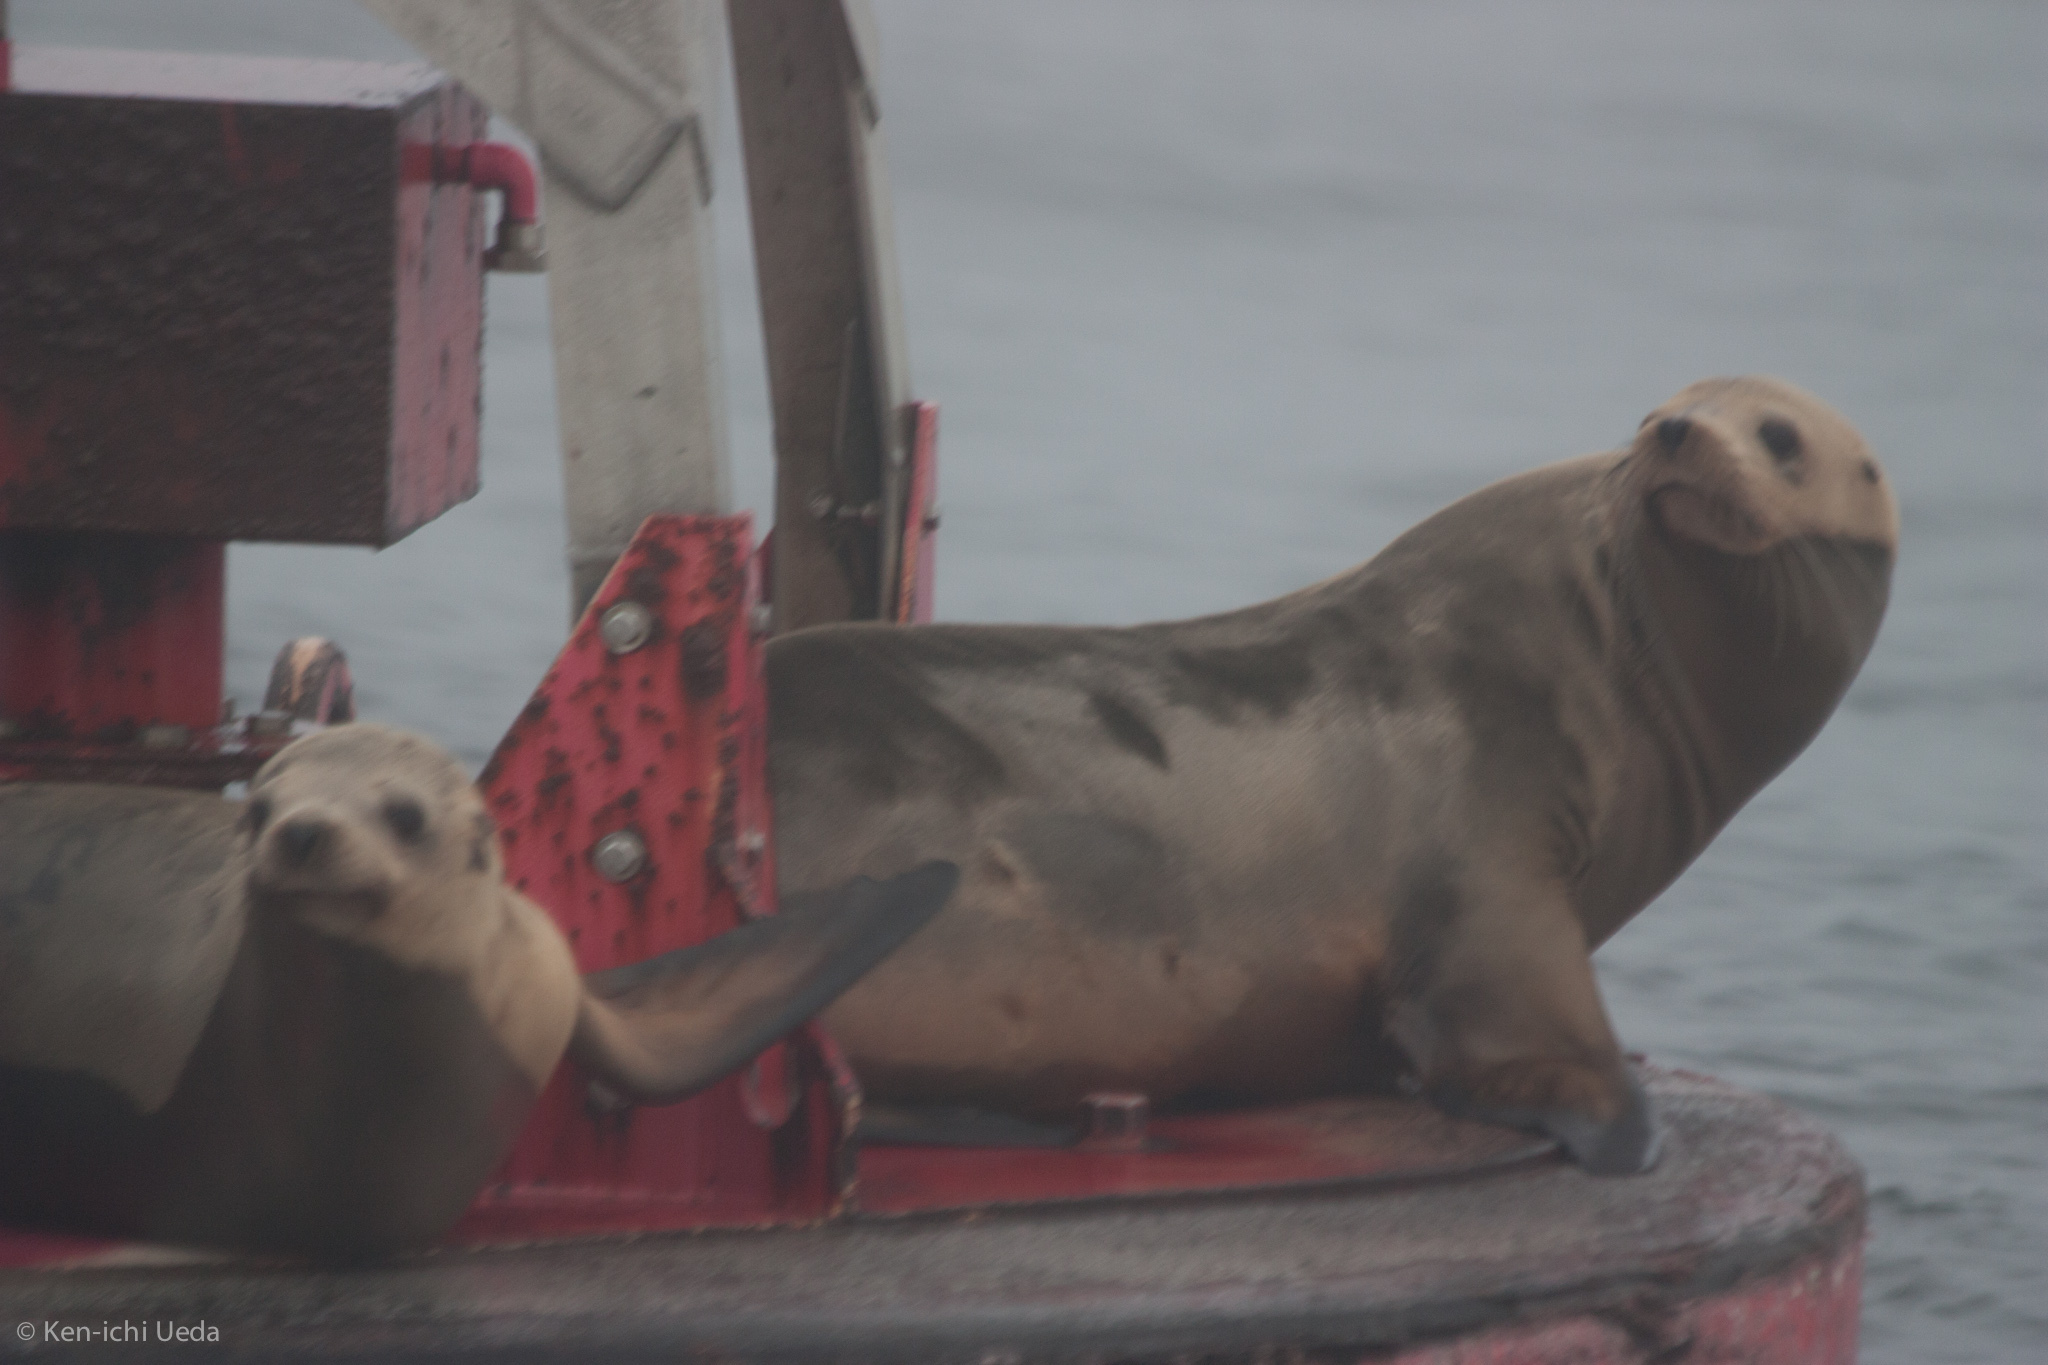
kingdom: Animalia
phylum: Chordata
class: Mammalia
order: Carnivora
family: Otariidae
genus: Zalophus
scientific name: Zalophus californianus
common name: California sea lion
